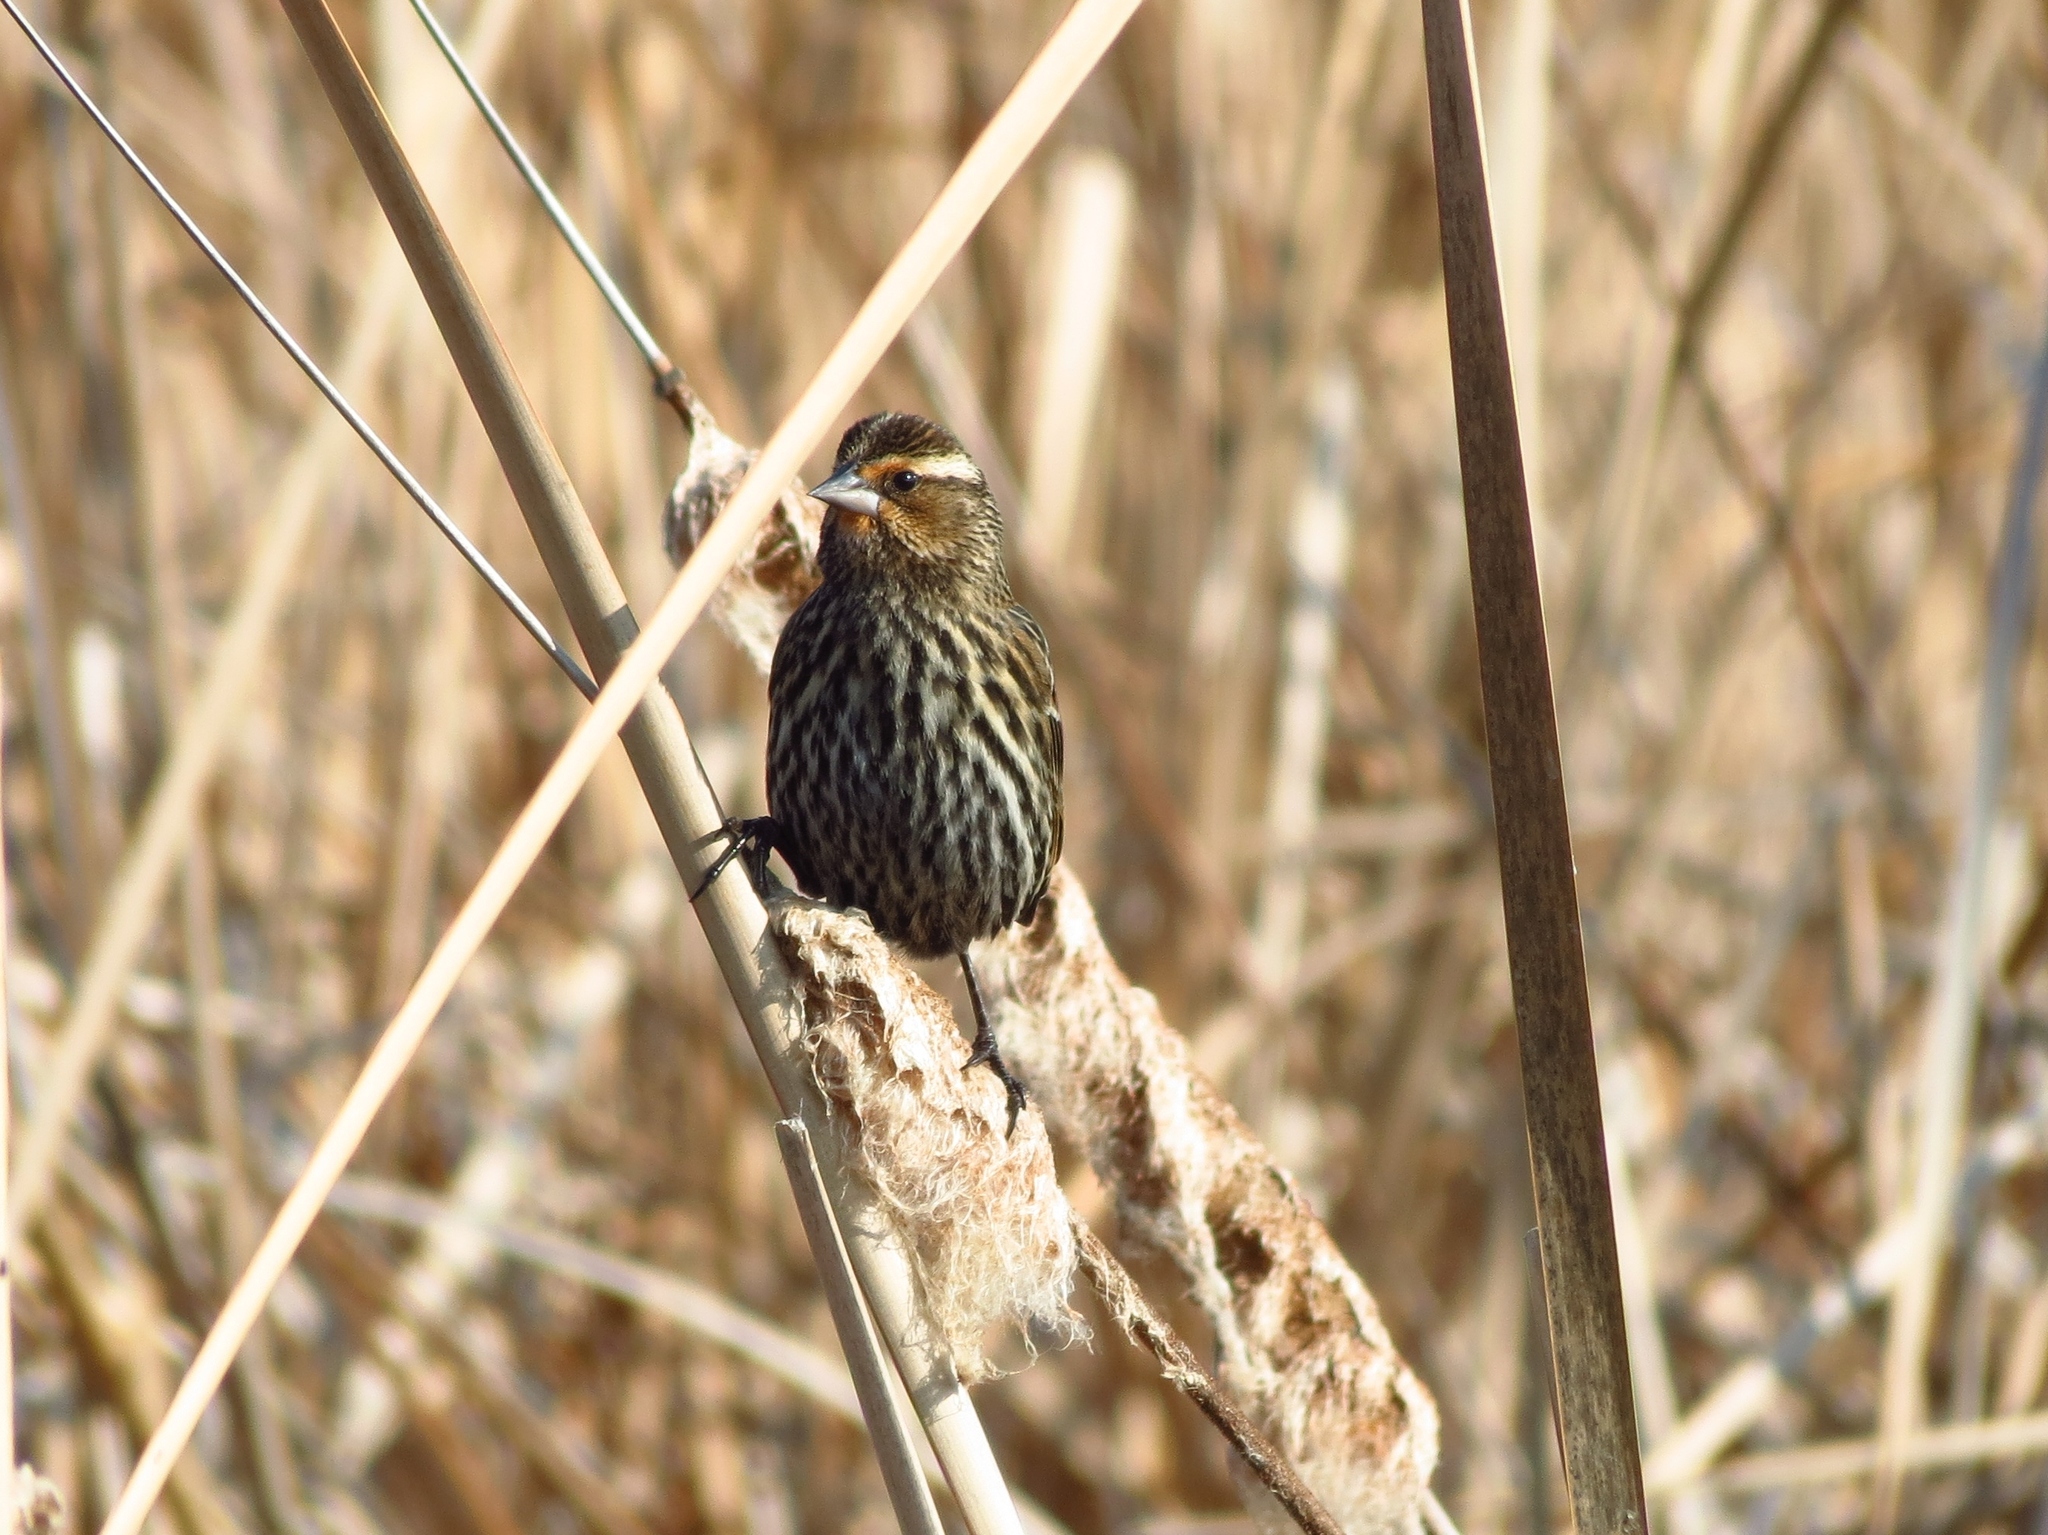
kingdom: Animalia
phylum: Chordata
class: Aves
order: Passeriformes
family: Icteridae
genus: Agelaius
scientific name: Agelaius phoeniceus
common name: Red-winged blackbird
